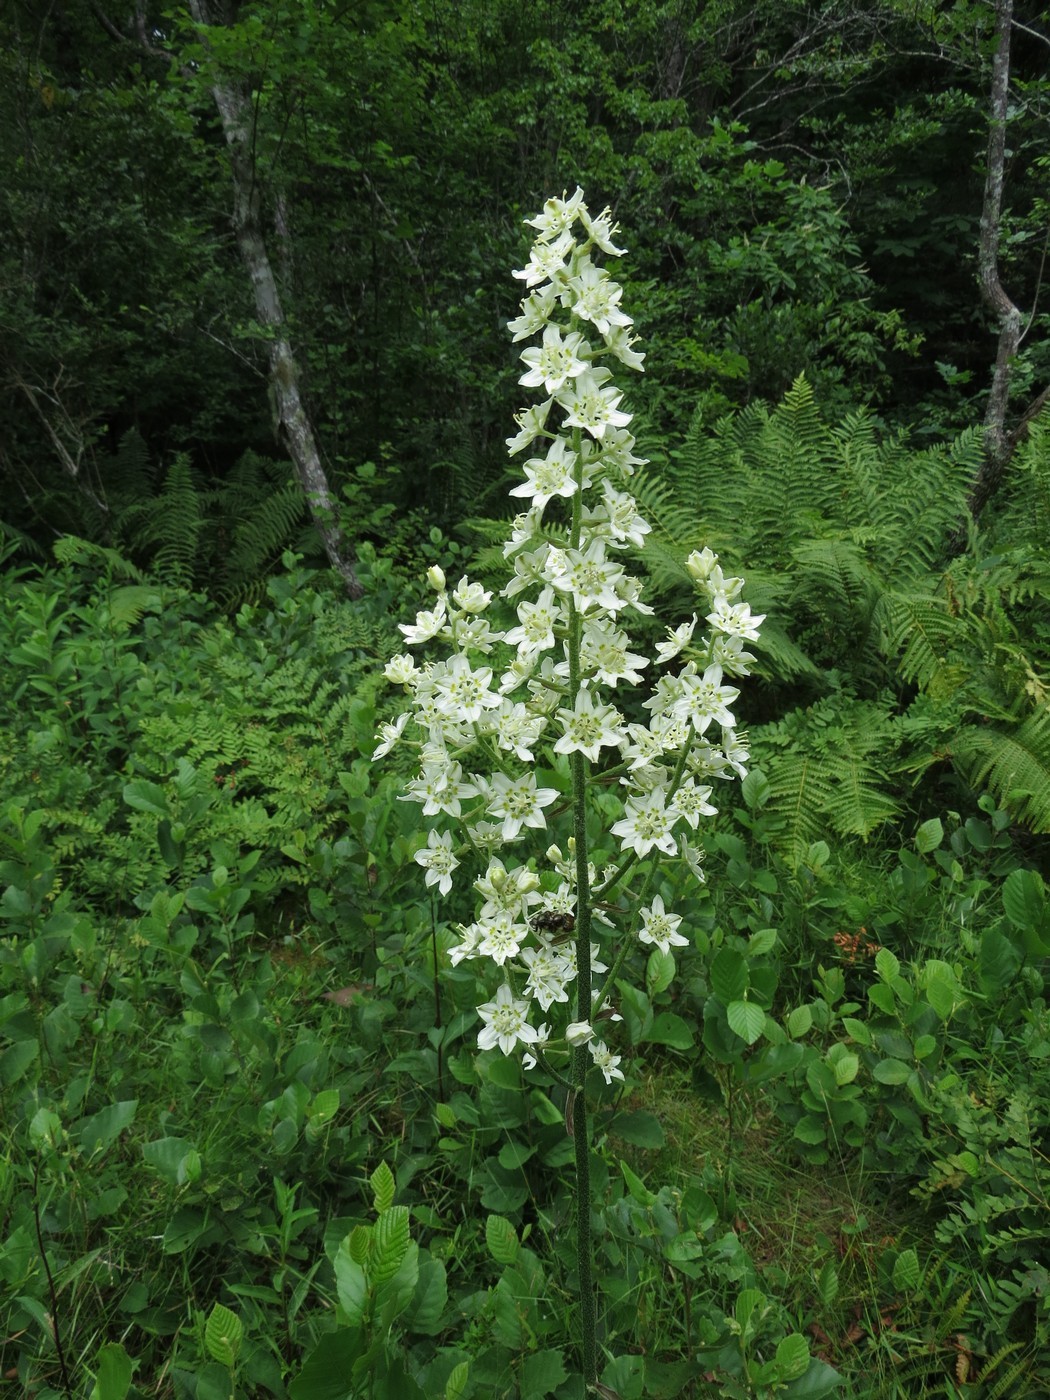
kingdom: Plantae
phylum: Tracheophyta
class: Liliopsida
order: Liliales
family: Melanthiaceae
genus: Melanthium
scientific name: Melanthium virginicum
